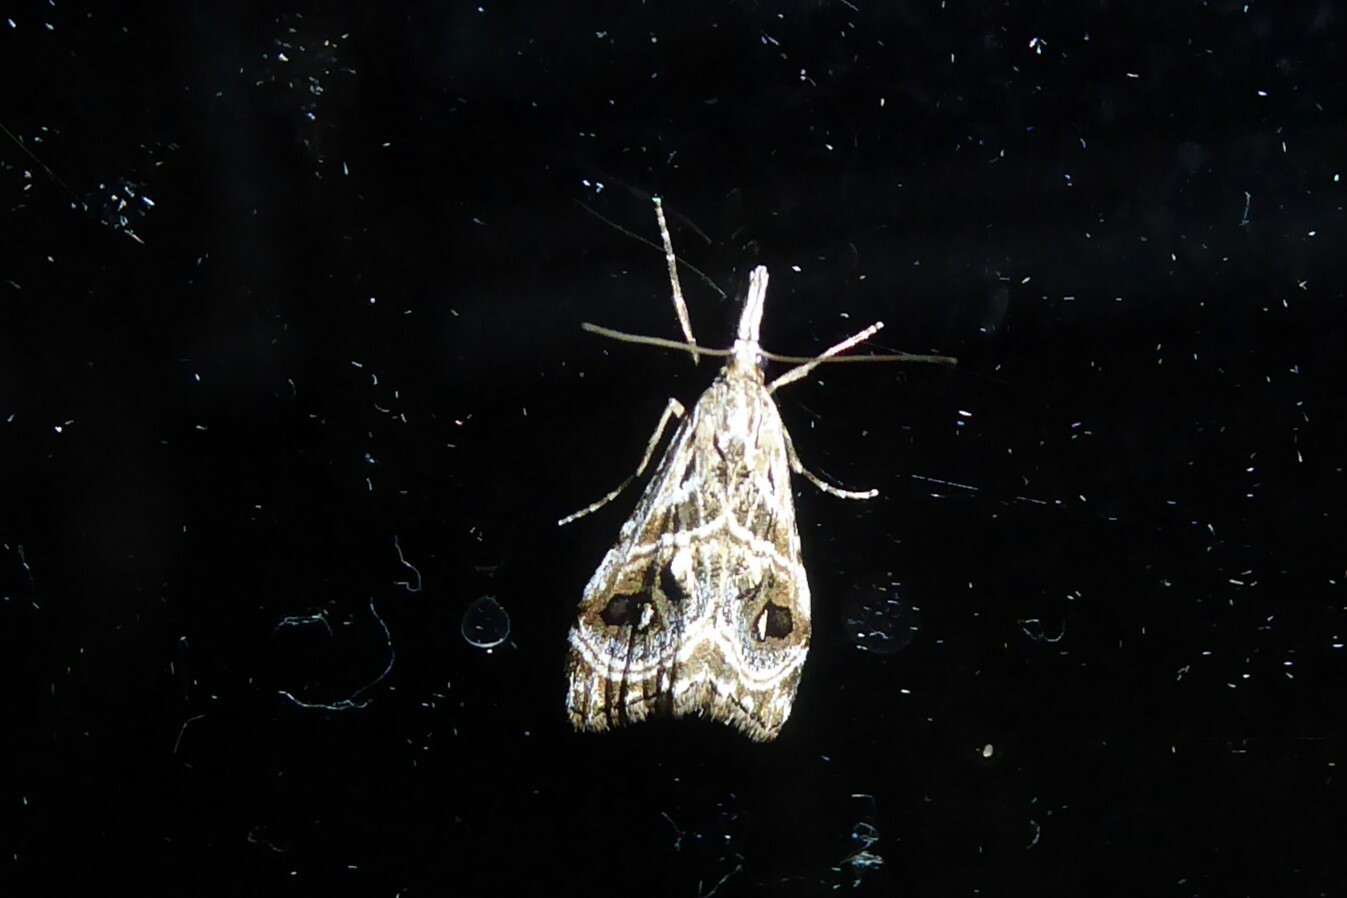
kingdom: Animalia
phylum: Arthropoda
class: Insecta
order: Lepidoptera
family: Crambidae
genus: Gadira
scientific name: Gadira acerella
